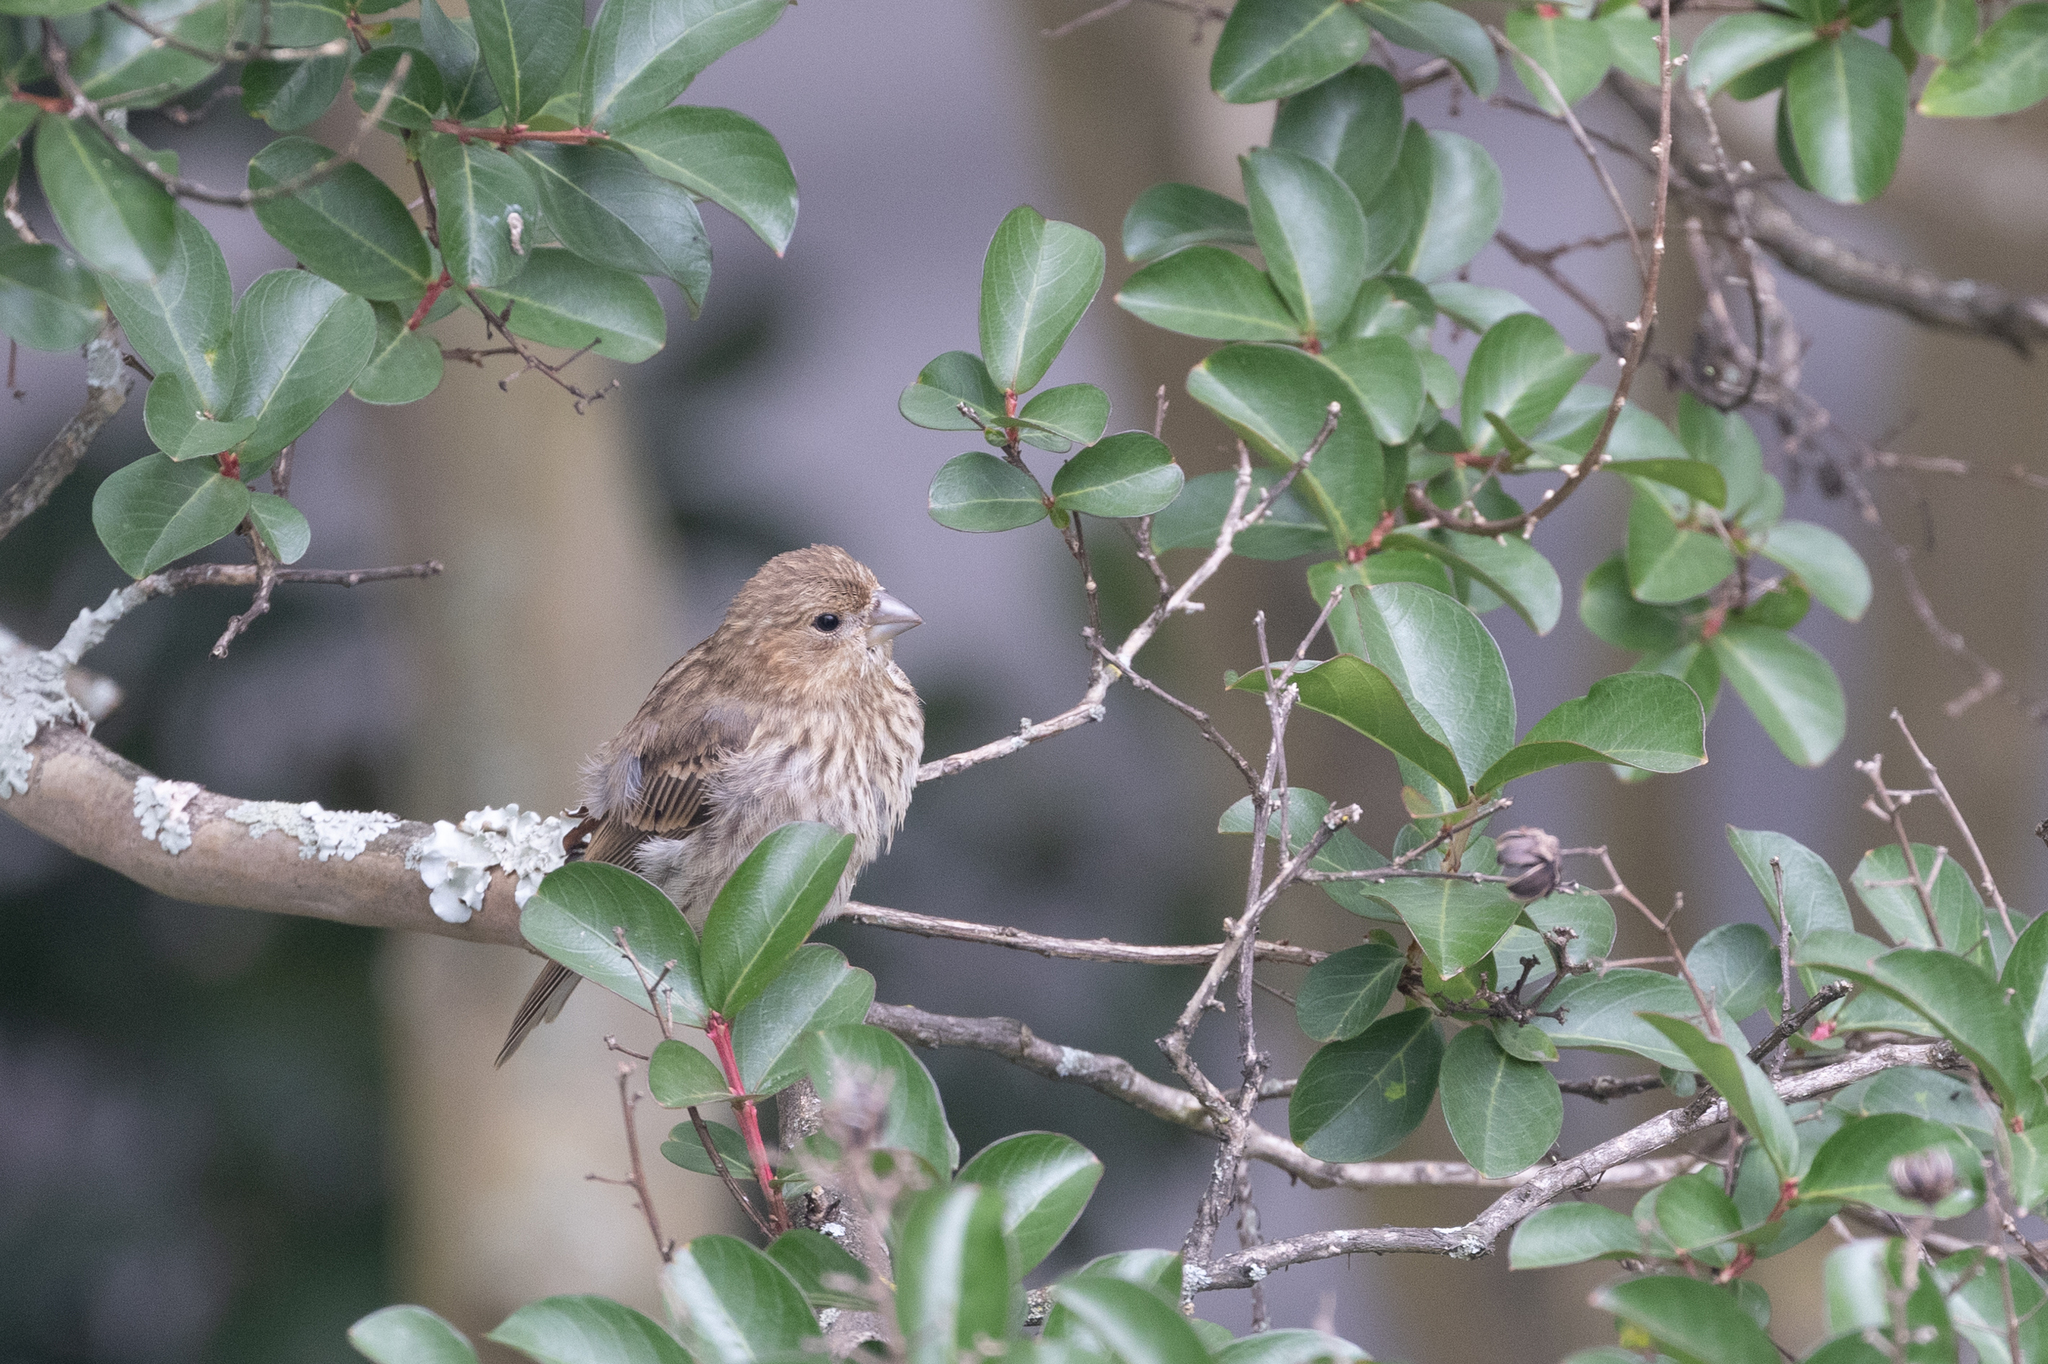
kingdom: Animalia
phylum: Chordata
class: Aves
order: Passeriformes
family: Fringillidae
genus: Haemorhous
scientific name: Haemorhous mexicanus
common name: House finch
